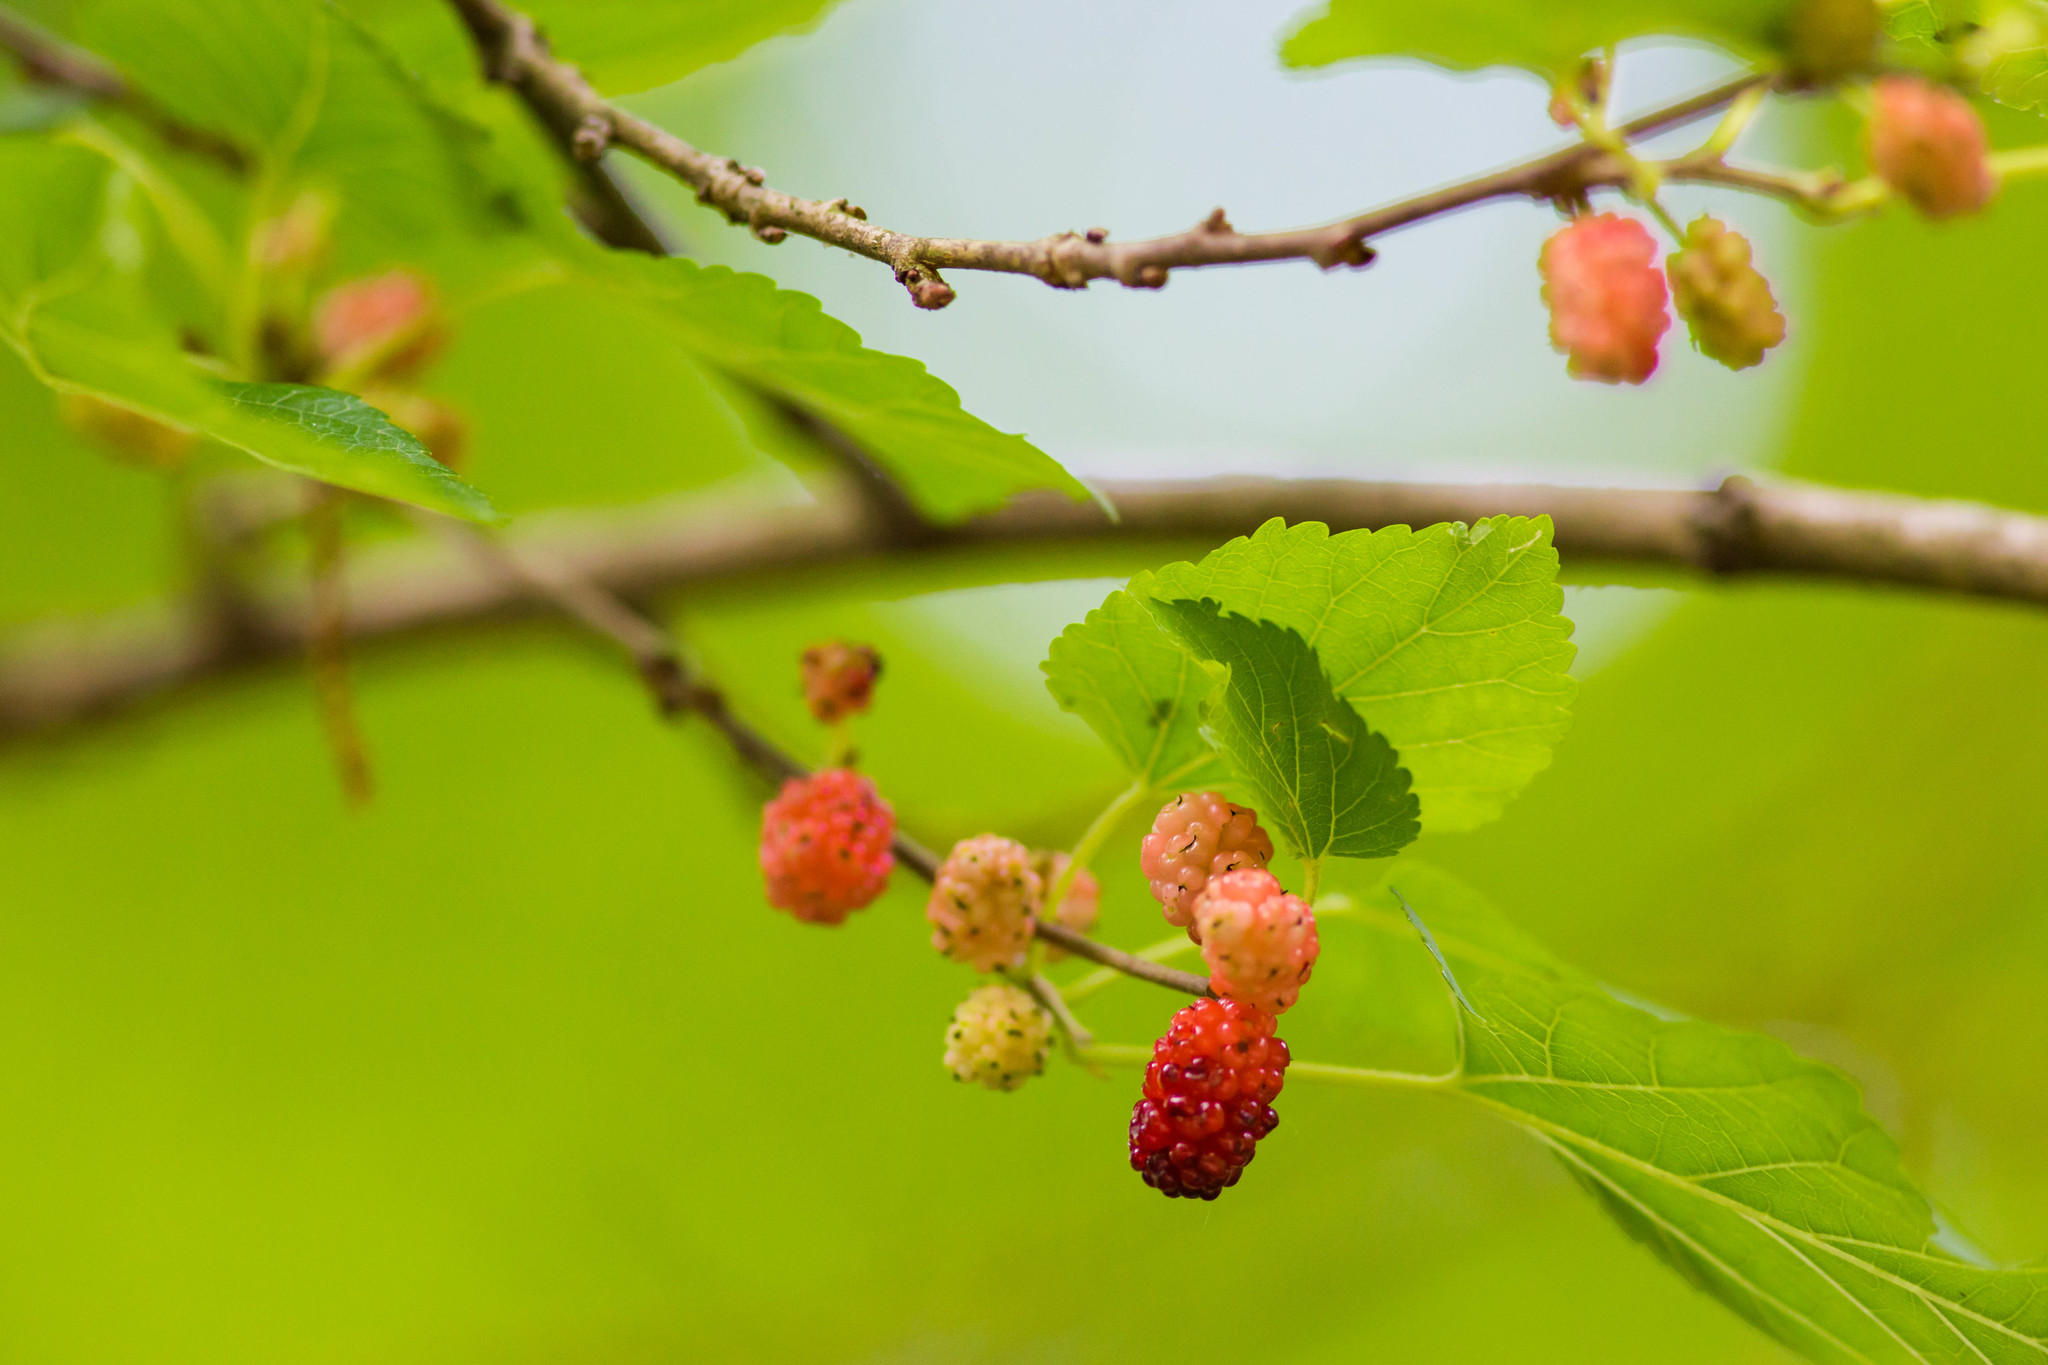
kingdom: Plantae
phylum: Tracheophyta
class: Magnoliopsida
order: Rosales
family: Moraceae
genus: Morus
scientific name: Morus alba
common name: White mulberry
